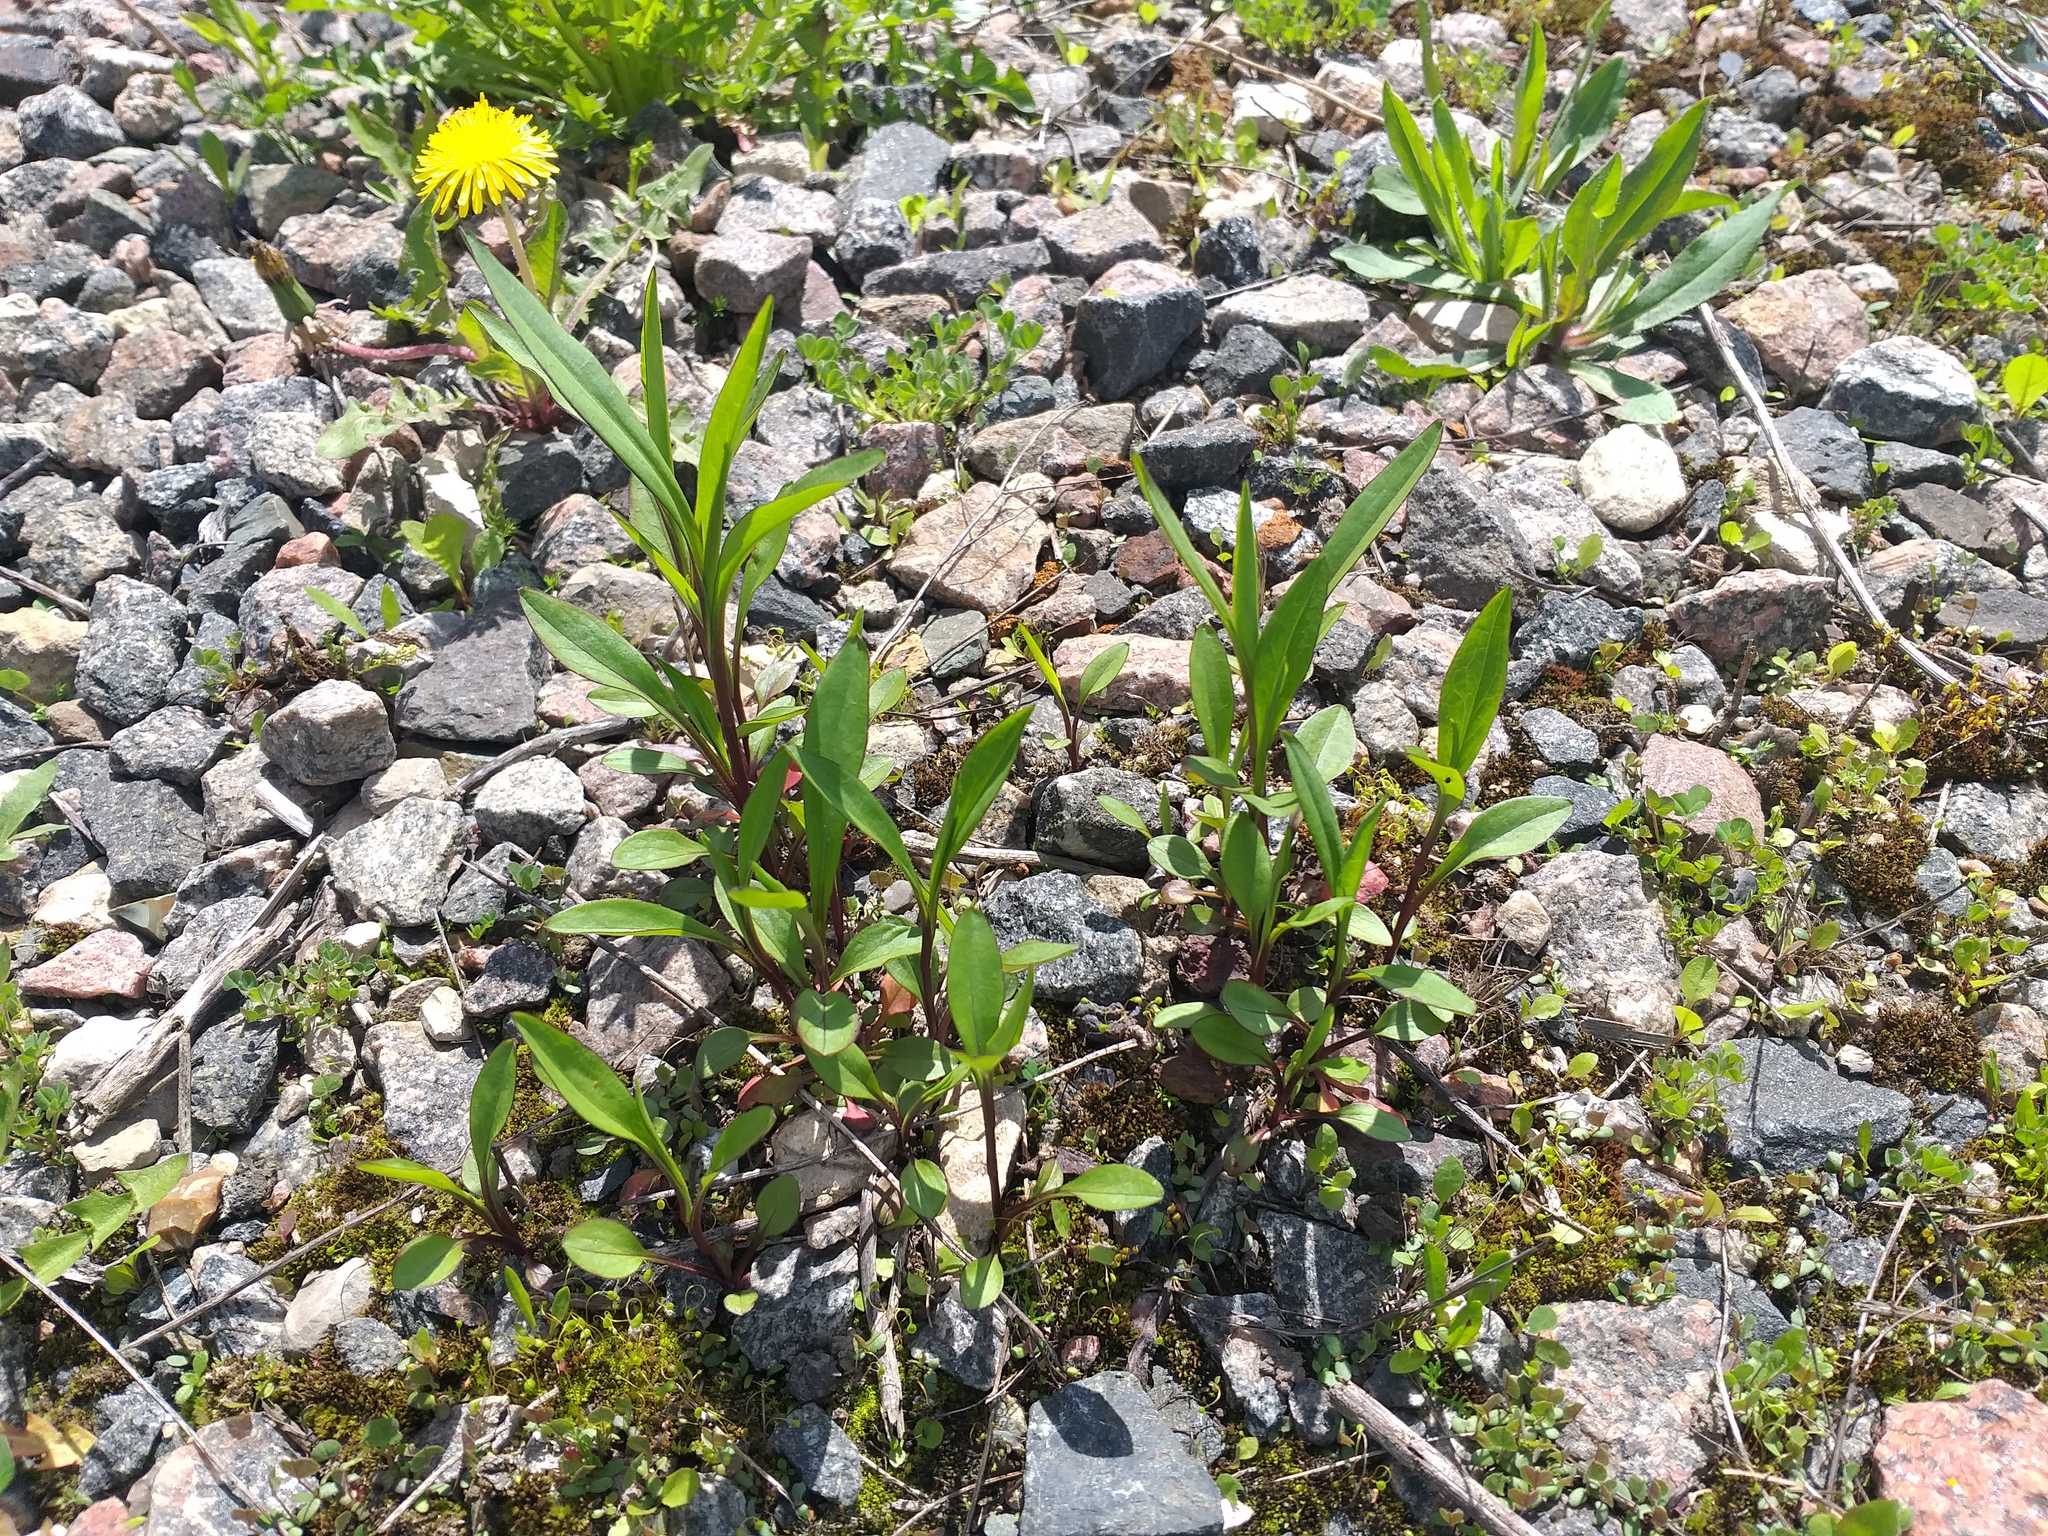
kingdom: Plantae
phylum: Tracheophyta
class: Magnoliopsida
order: Asterales
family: Asteraceae
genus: Symphyotrichum
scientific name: Symphyotrichum
